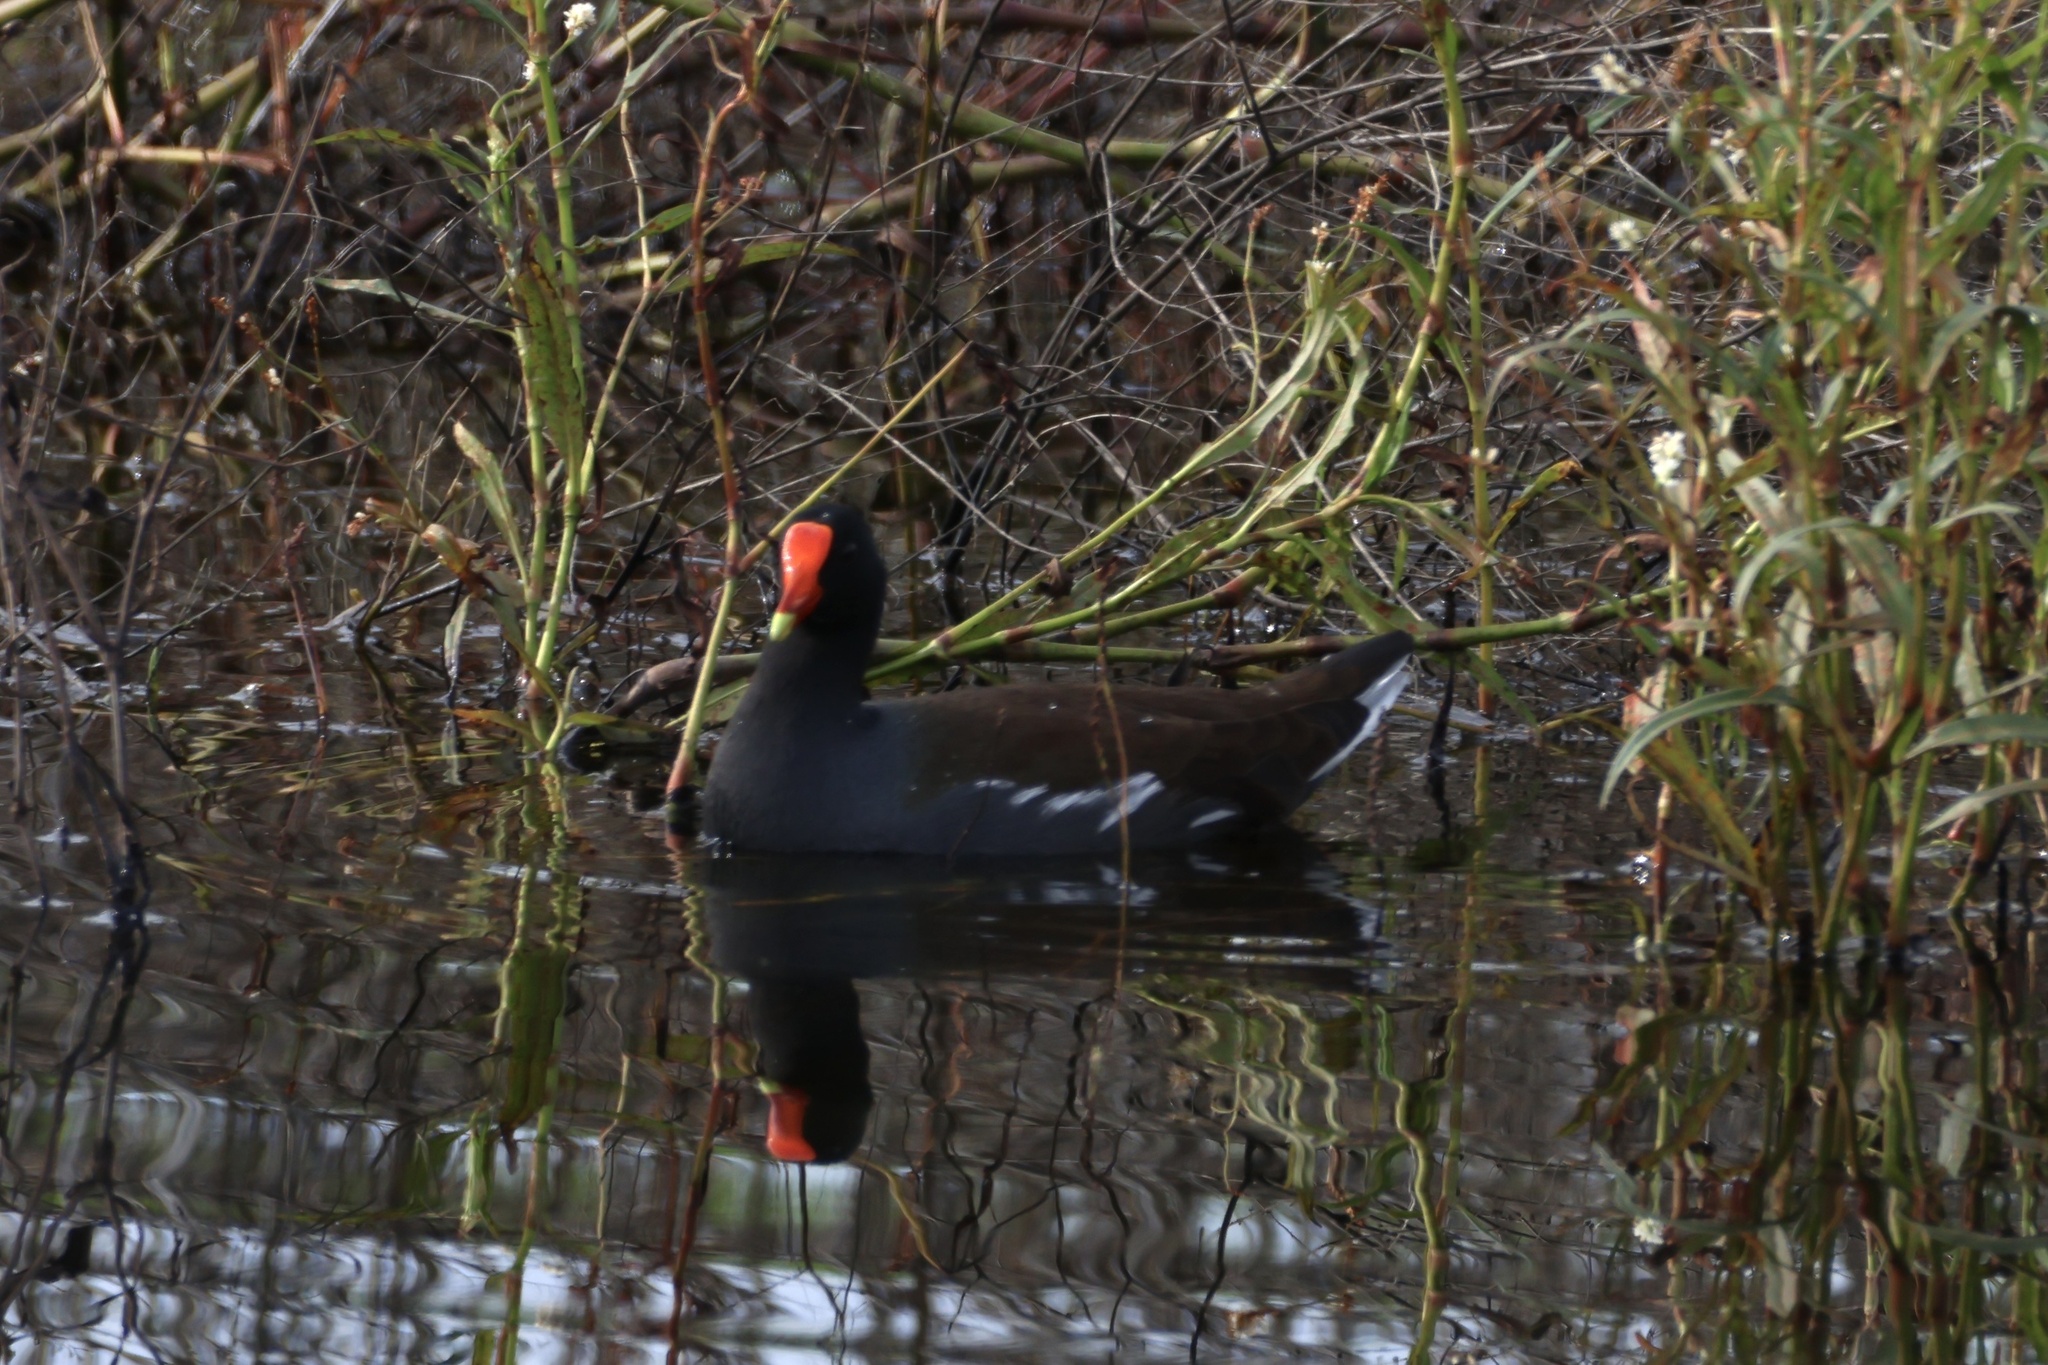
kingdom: Animalia
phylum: Chordata
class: Aves
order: Gruiformes
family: Rallidae
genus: Gallinula
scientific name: Gallinula chloropus
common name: Common moorhen
